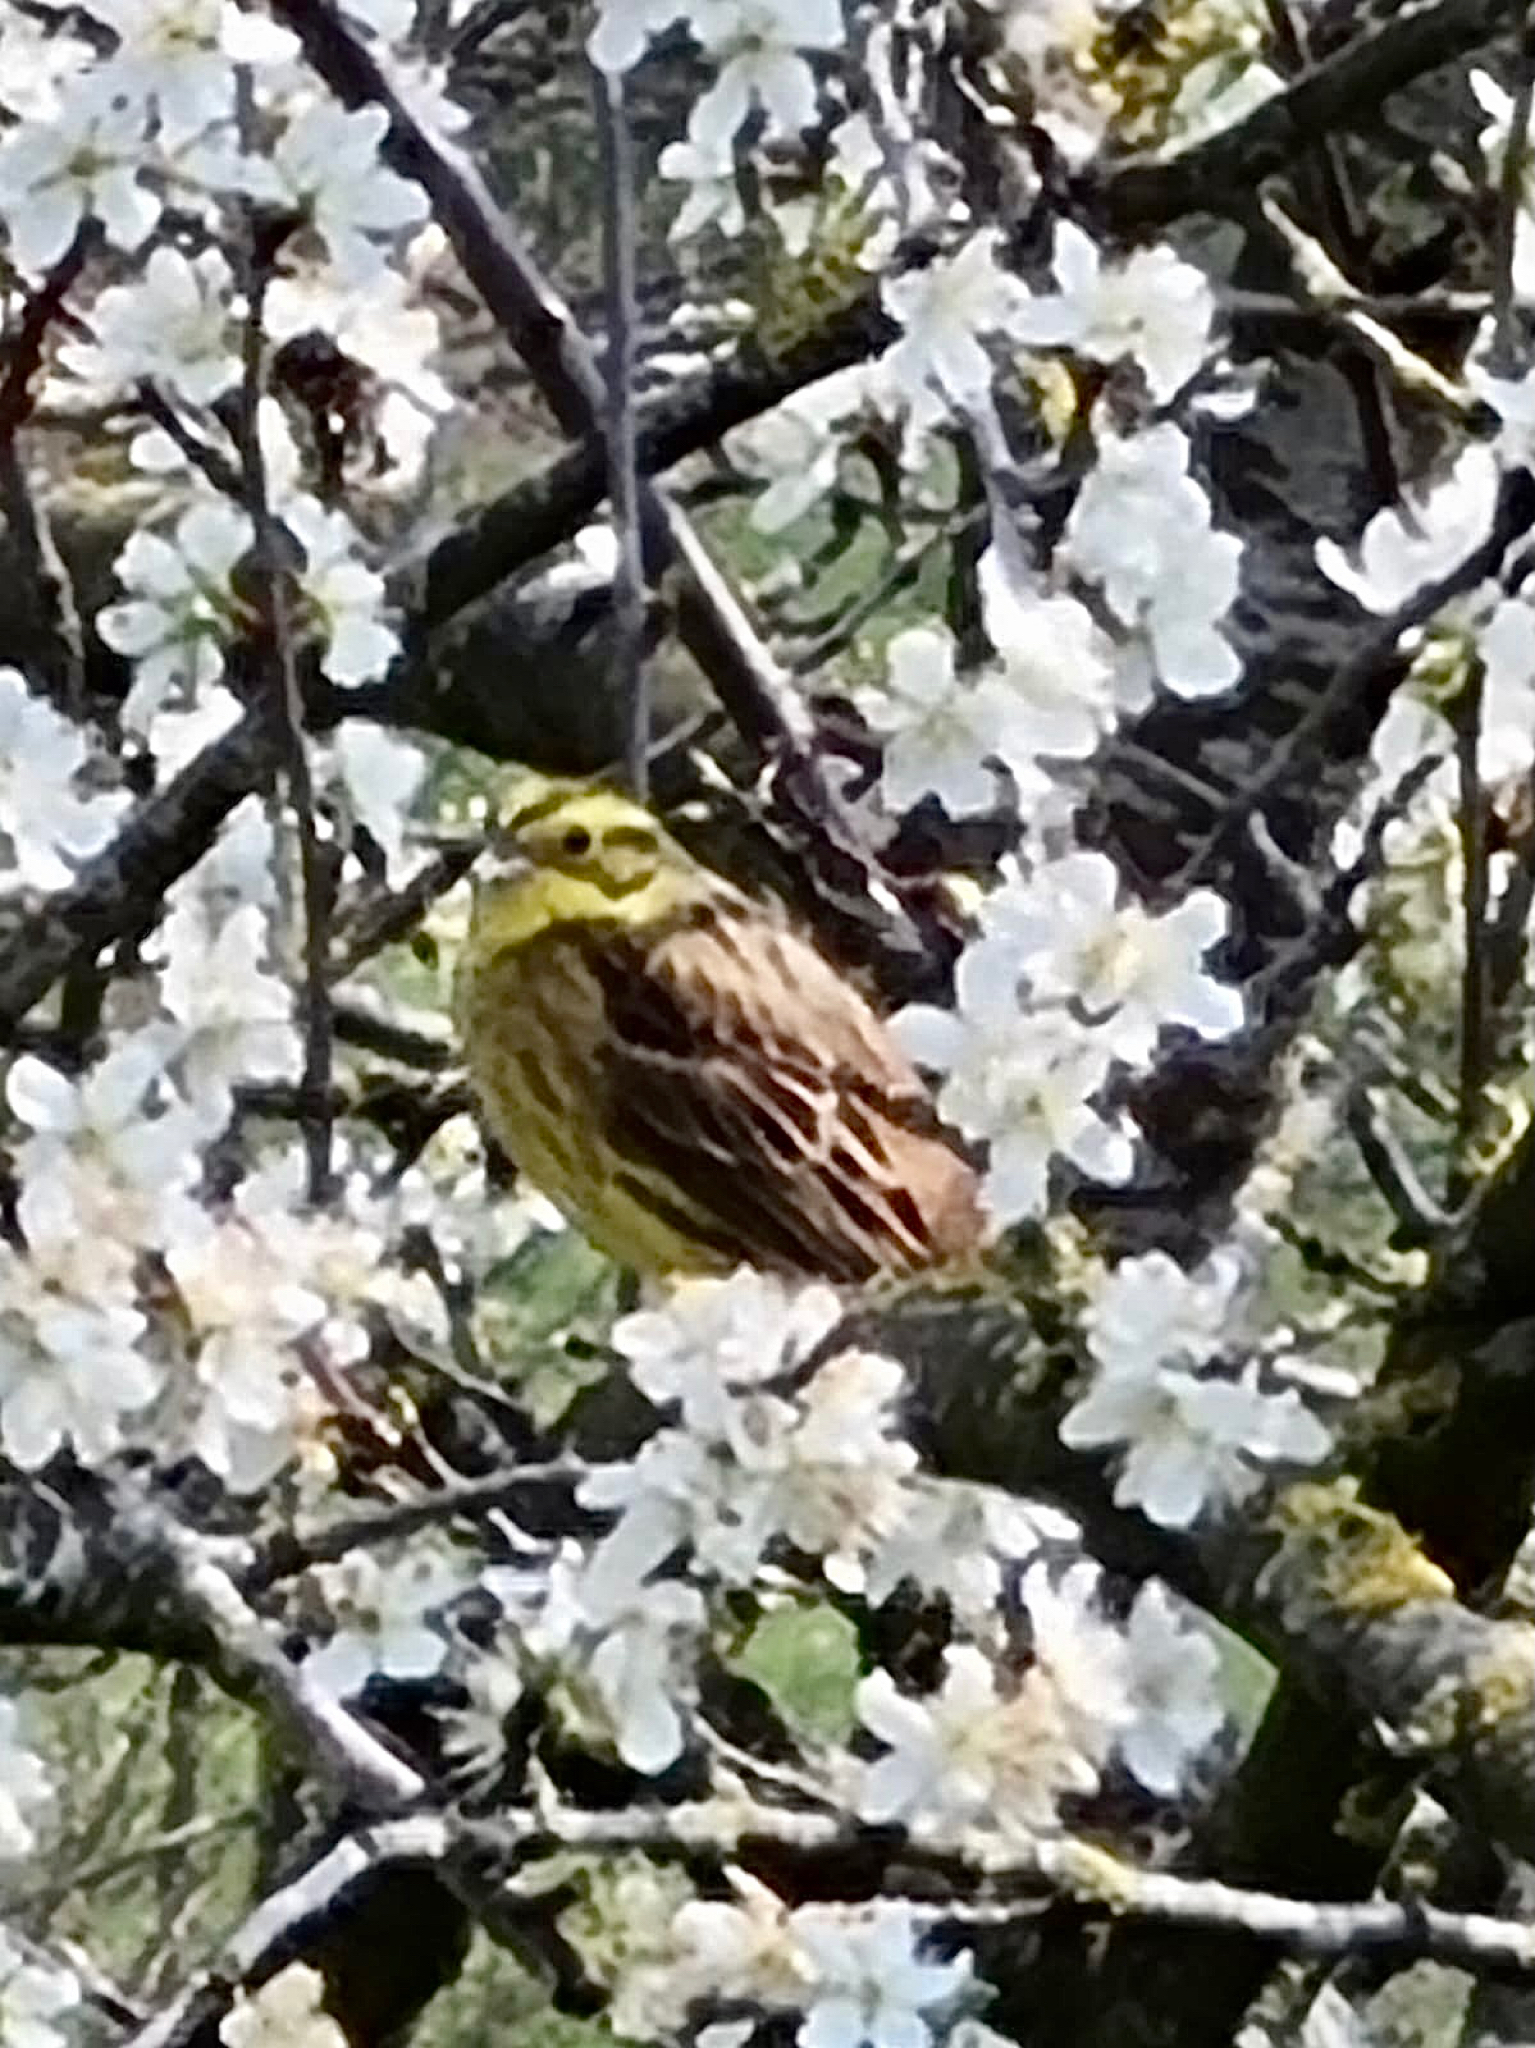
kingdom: Animalia
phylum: Chordata
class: Aves
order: Passeriformes
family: Emberizidae
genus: Emberiza
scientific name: Emberiza citrinella
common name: Yellowhammer
